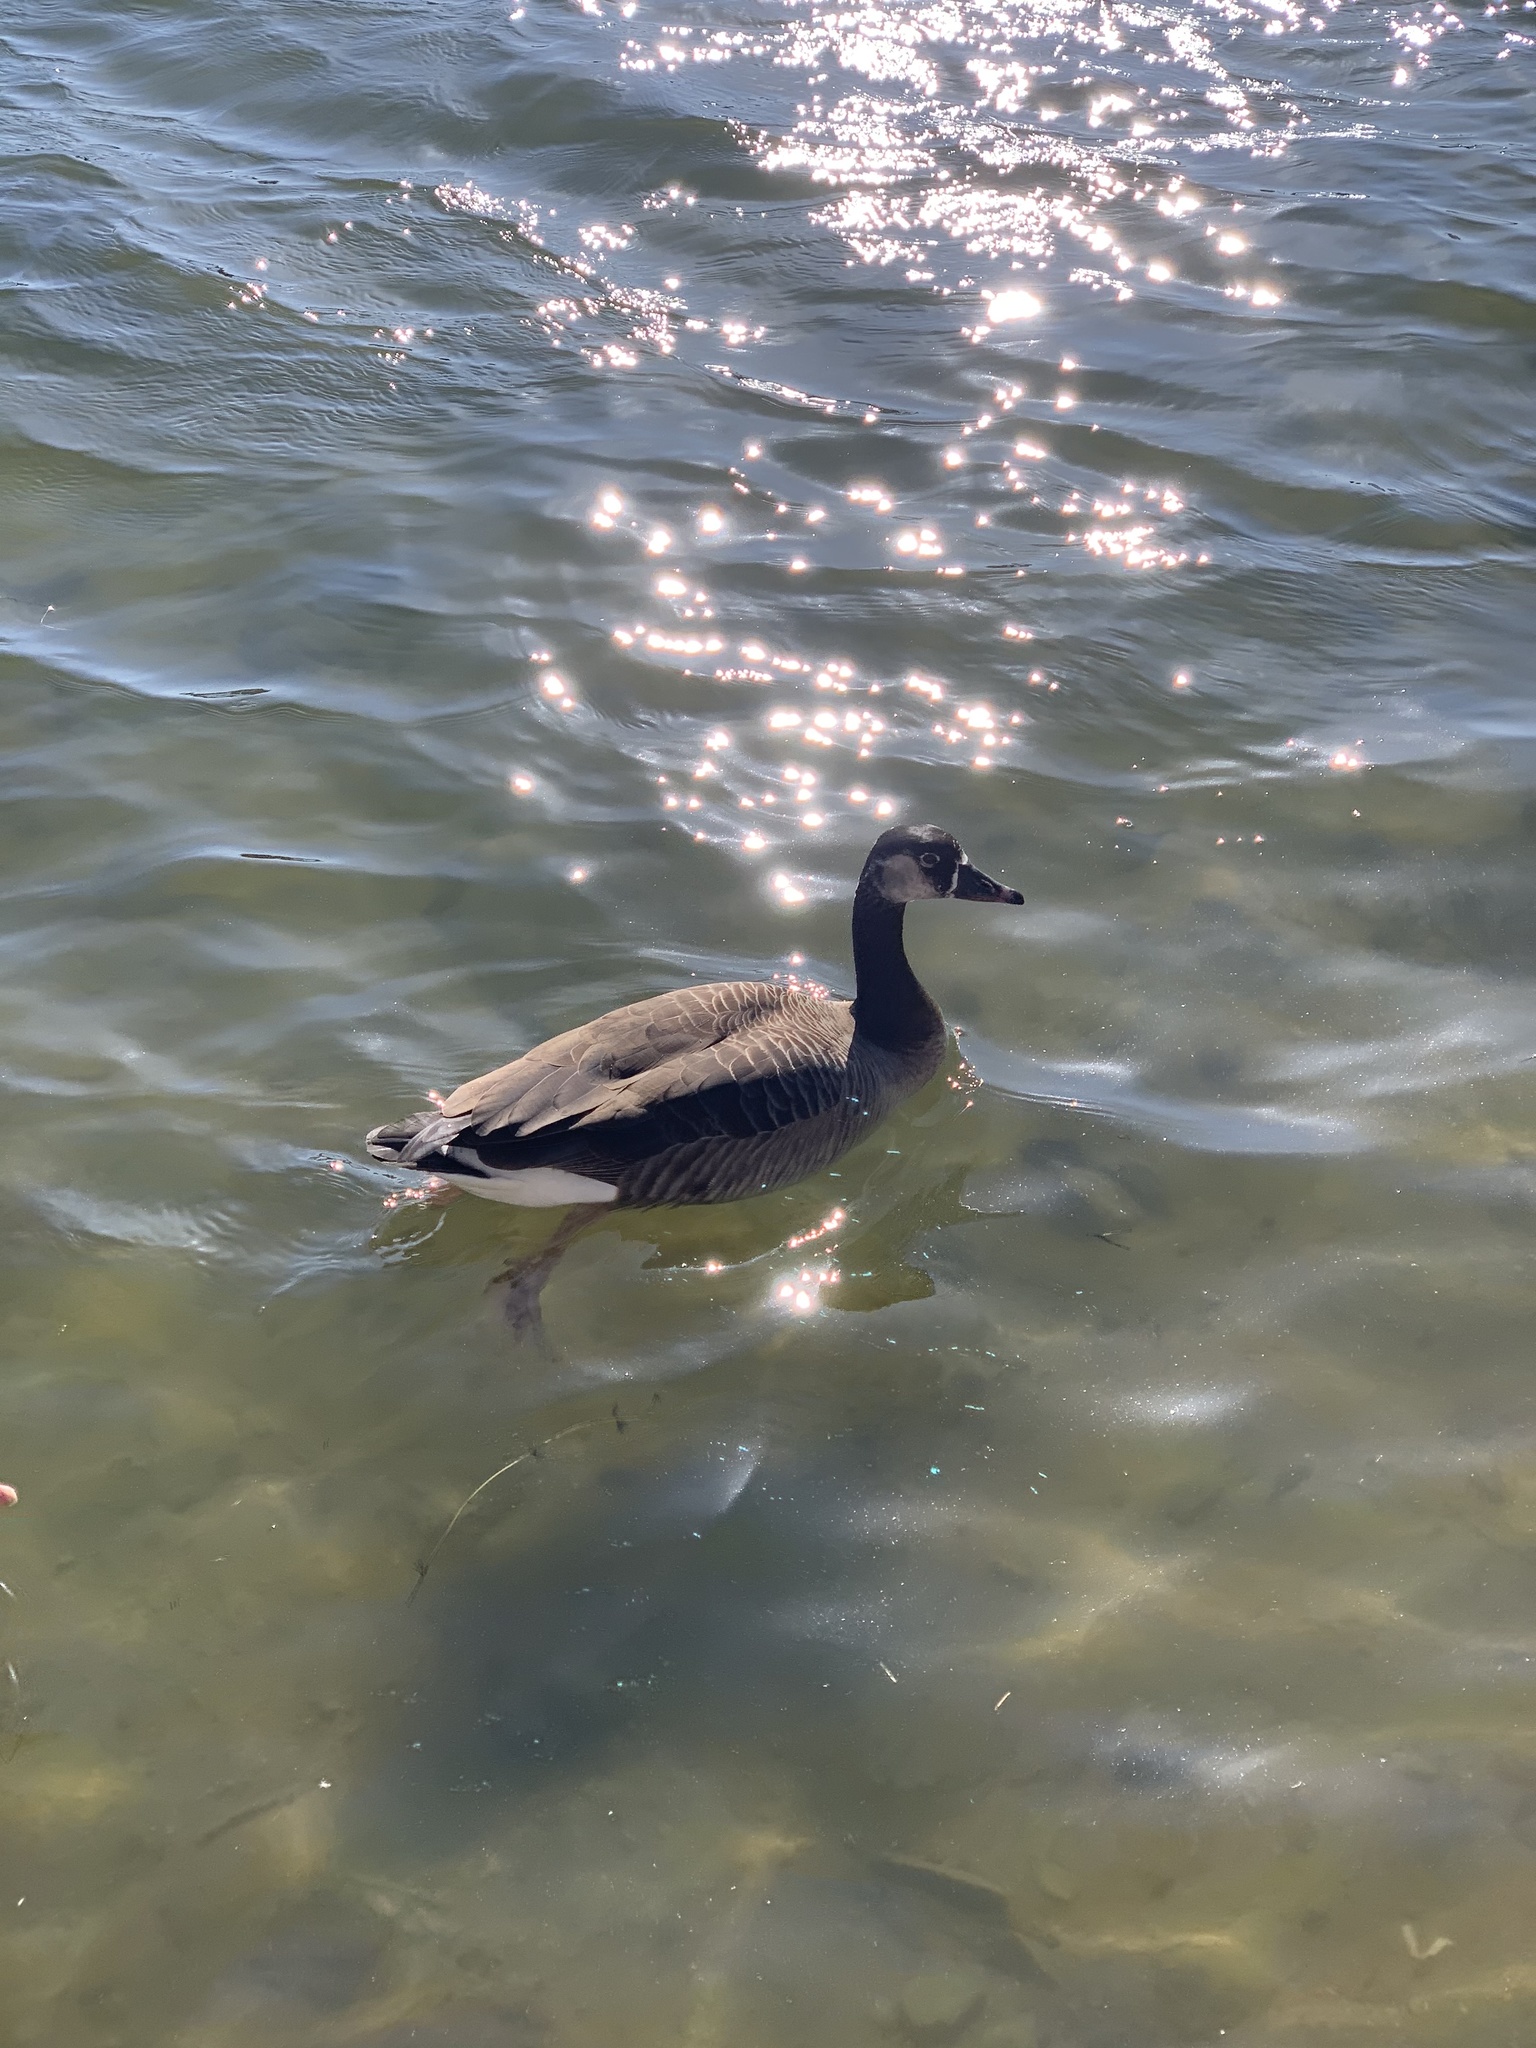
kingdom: Animalia
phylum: Chordata
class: Aves
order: Anseriformes
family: Anatidae
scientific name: Anatidae
